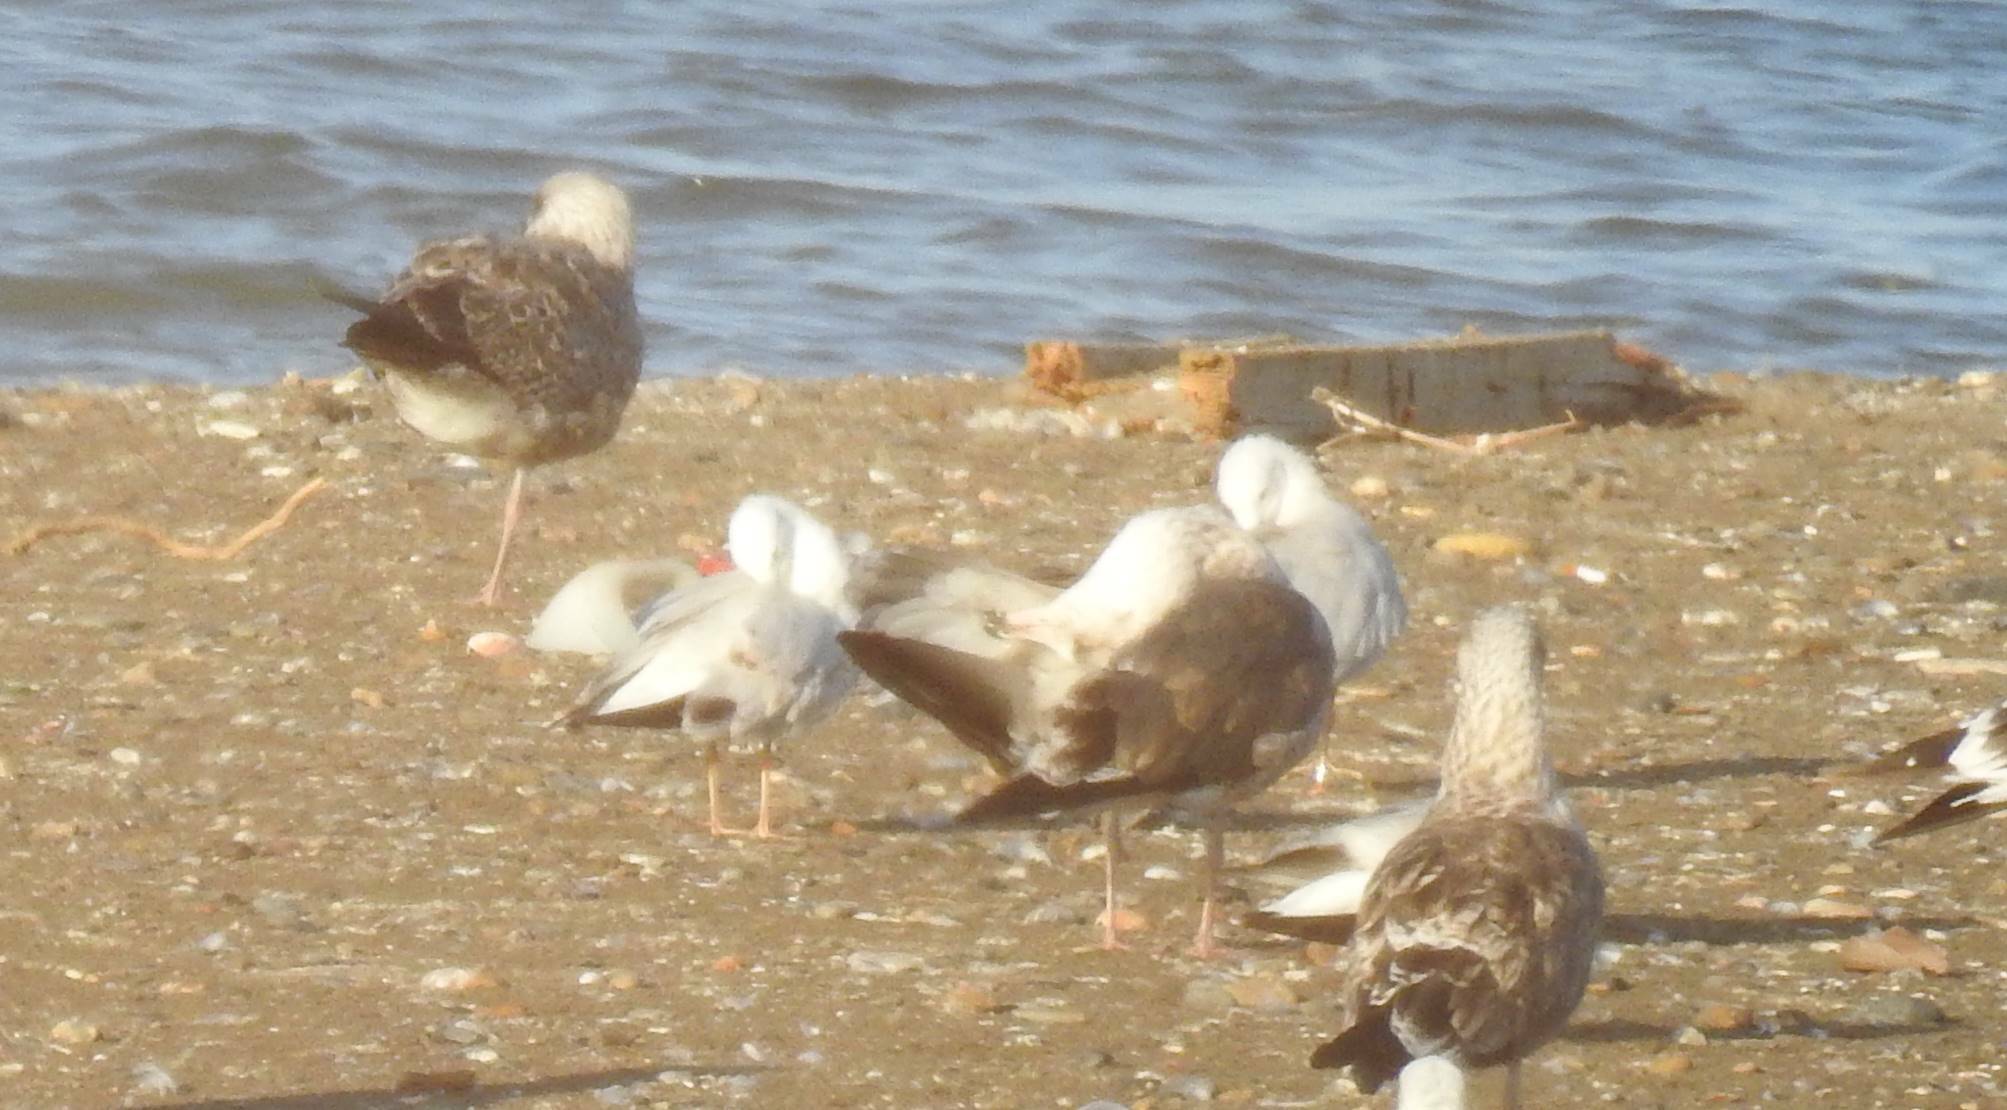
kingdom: Animalia
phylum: Chordata
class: Aves
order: Charadriiformes
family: Laridae
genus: Larus
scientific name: Larus fuscus
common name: Lesser black-backed gull
